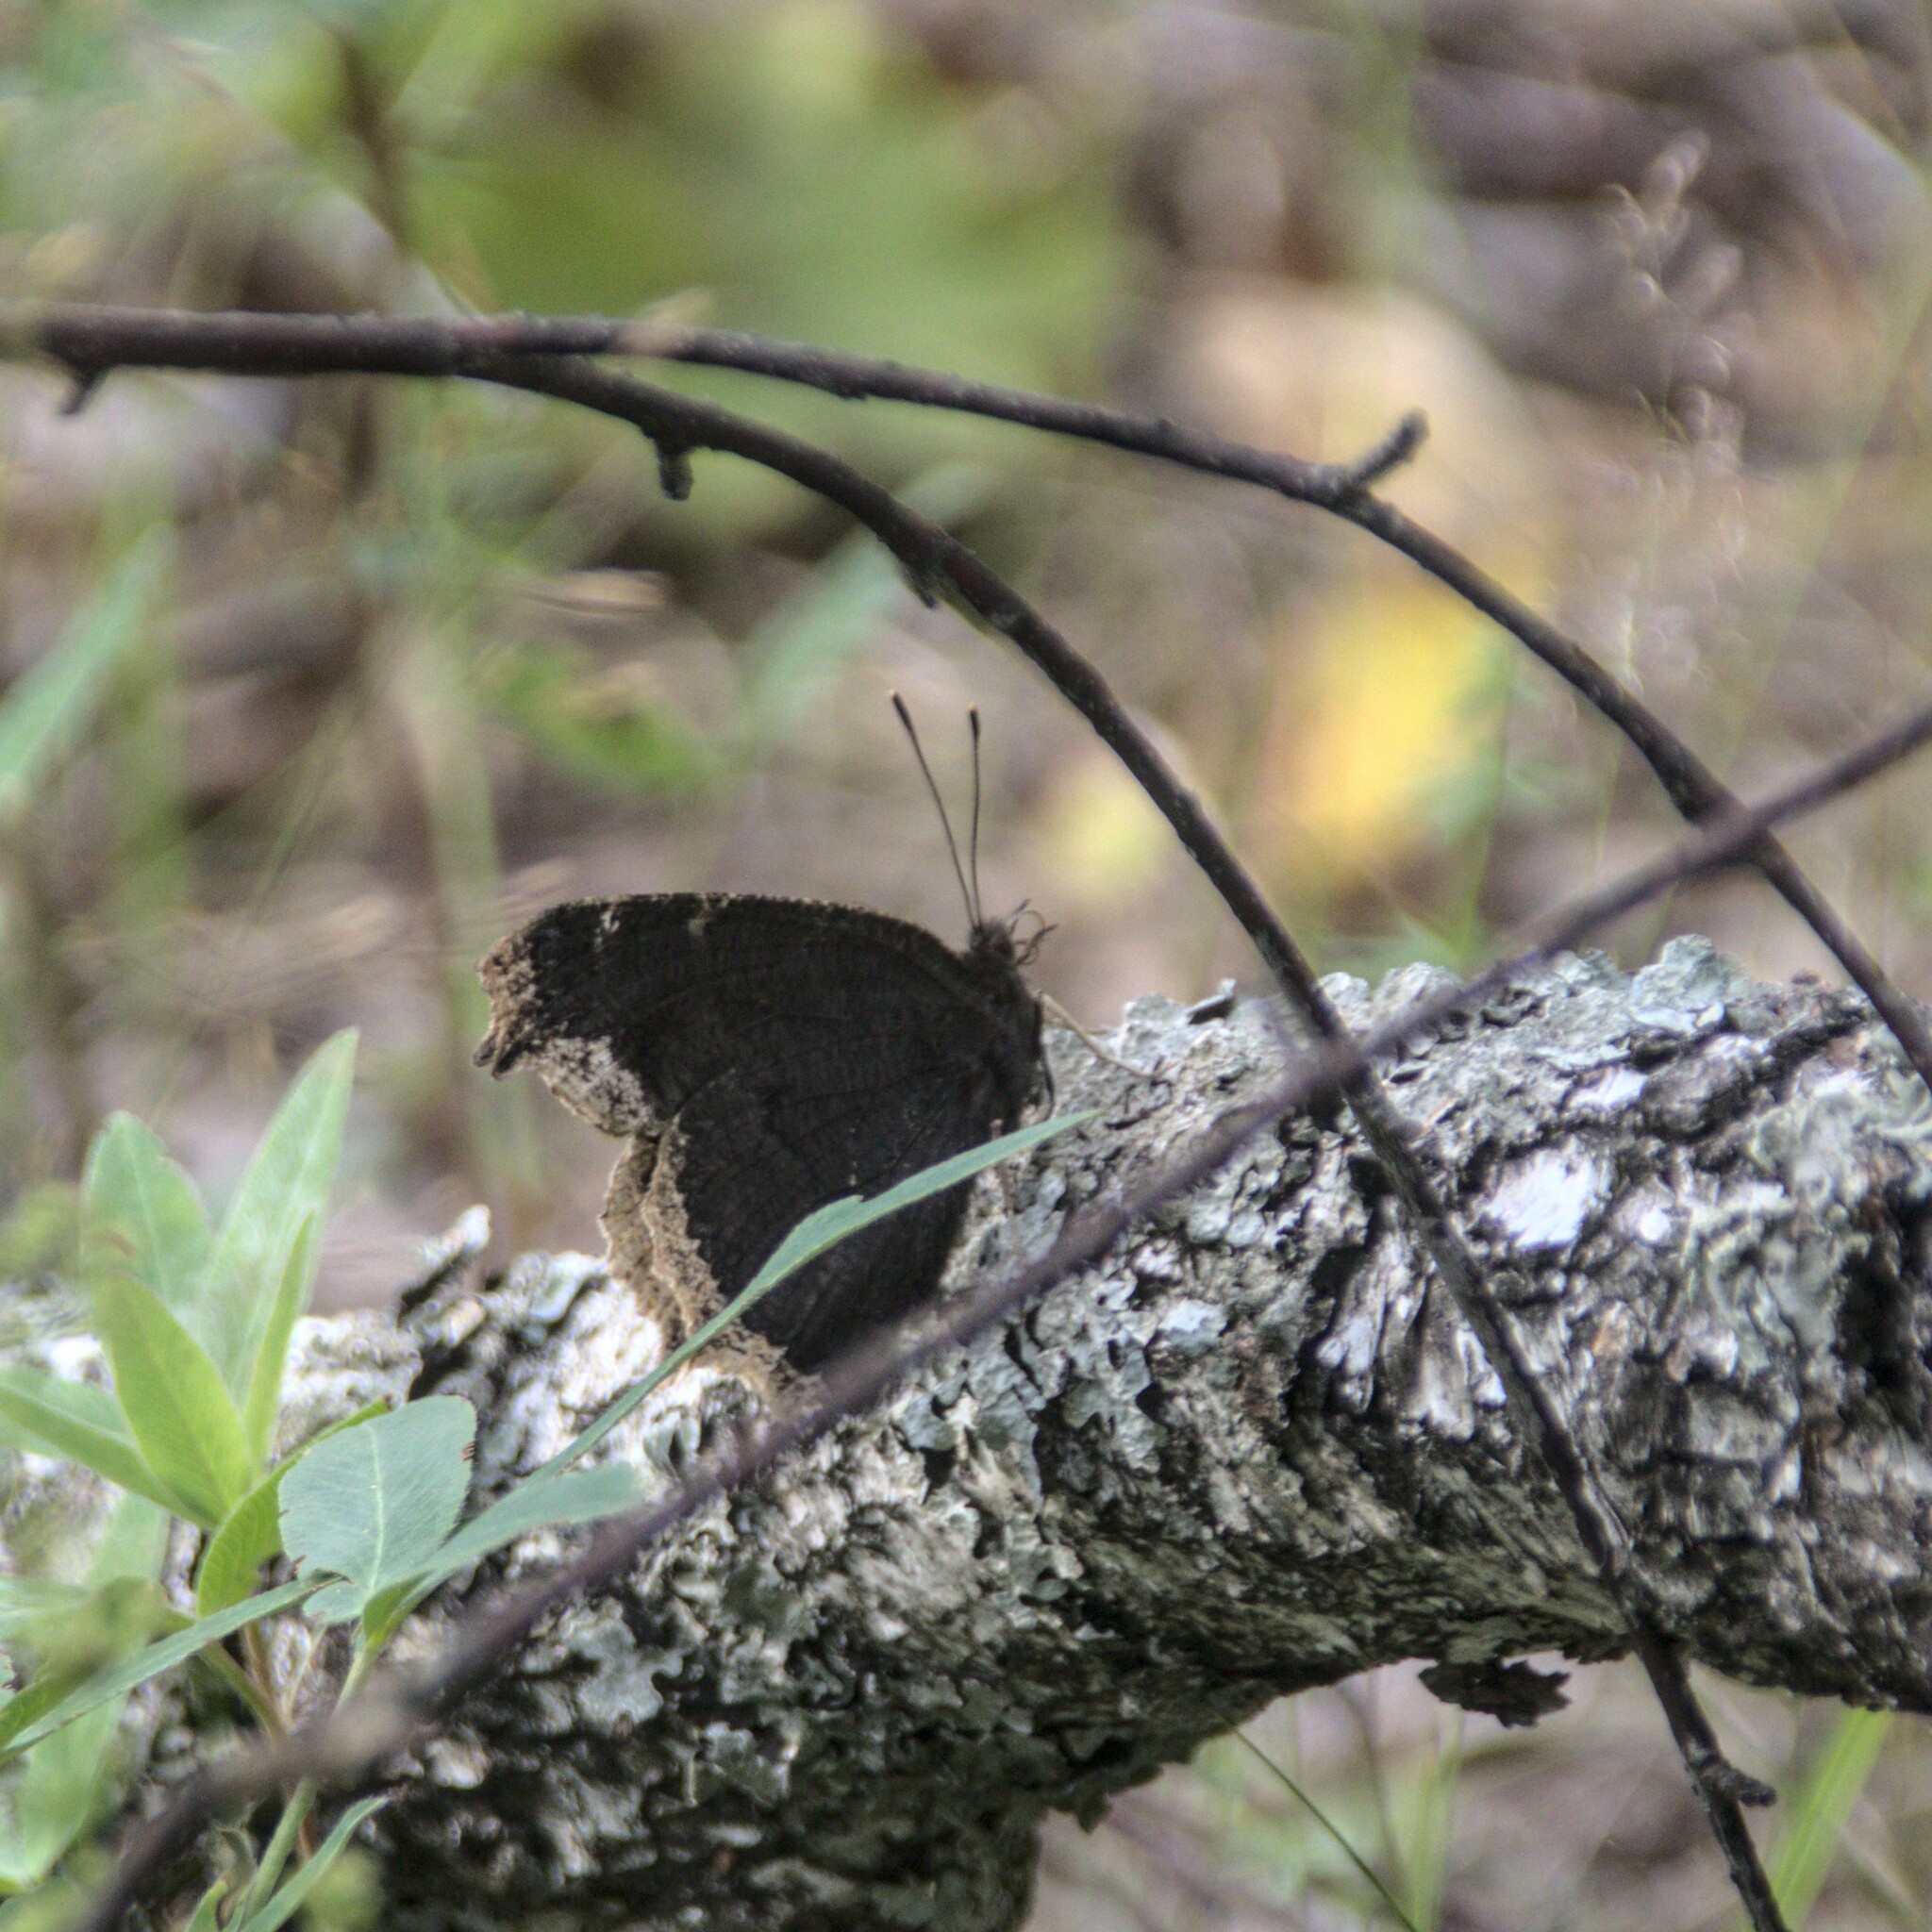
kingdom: Animalia
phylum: Arthropoda
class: Insecta
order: Lepidoptera
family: Nymphalidae
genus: Nymphalis
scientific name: Nymphalis antiopa
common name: Camberwell beauty
